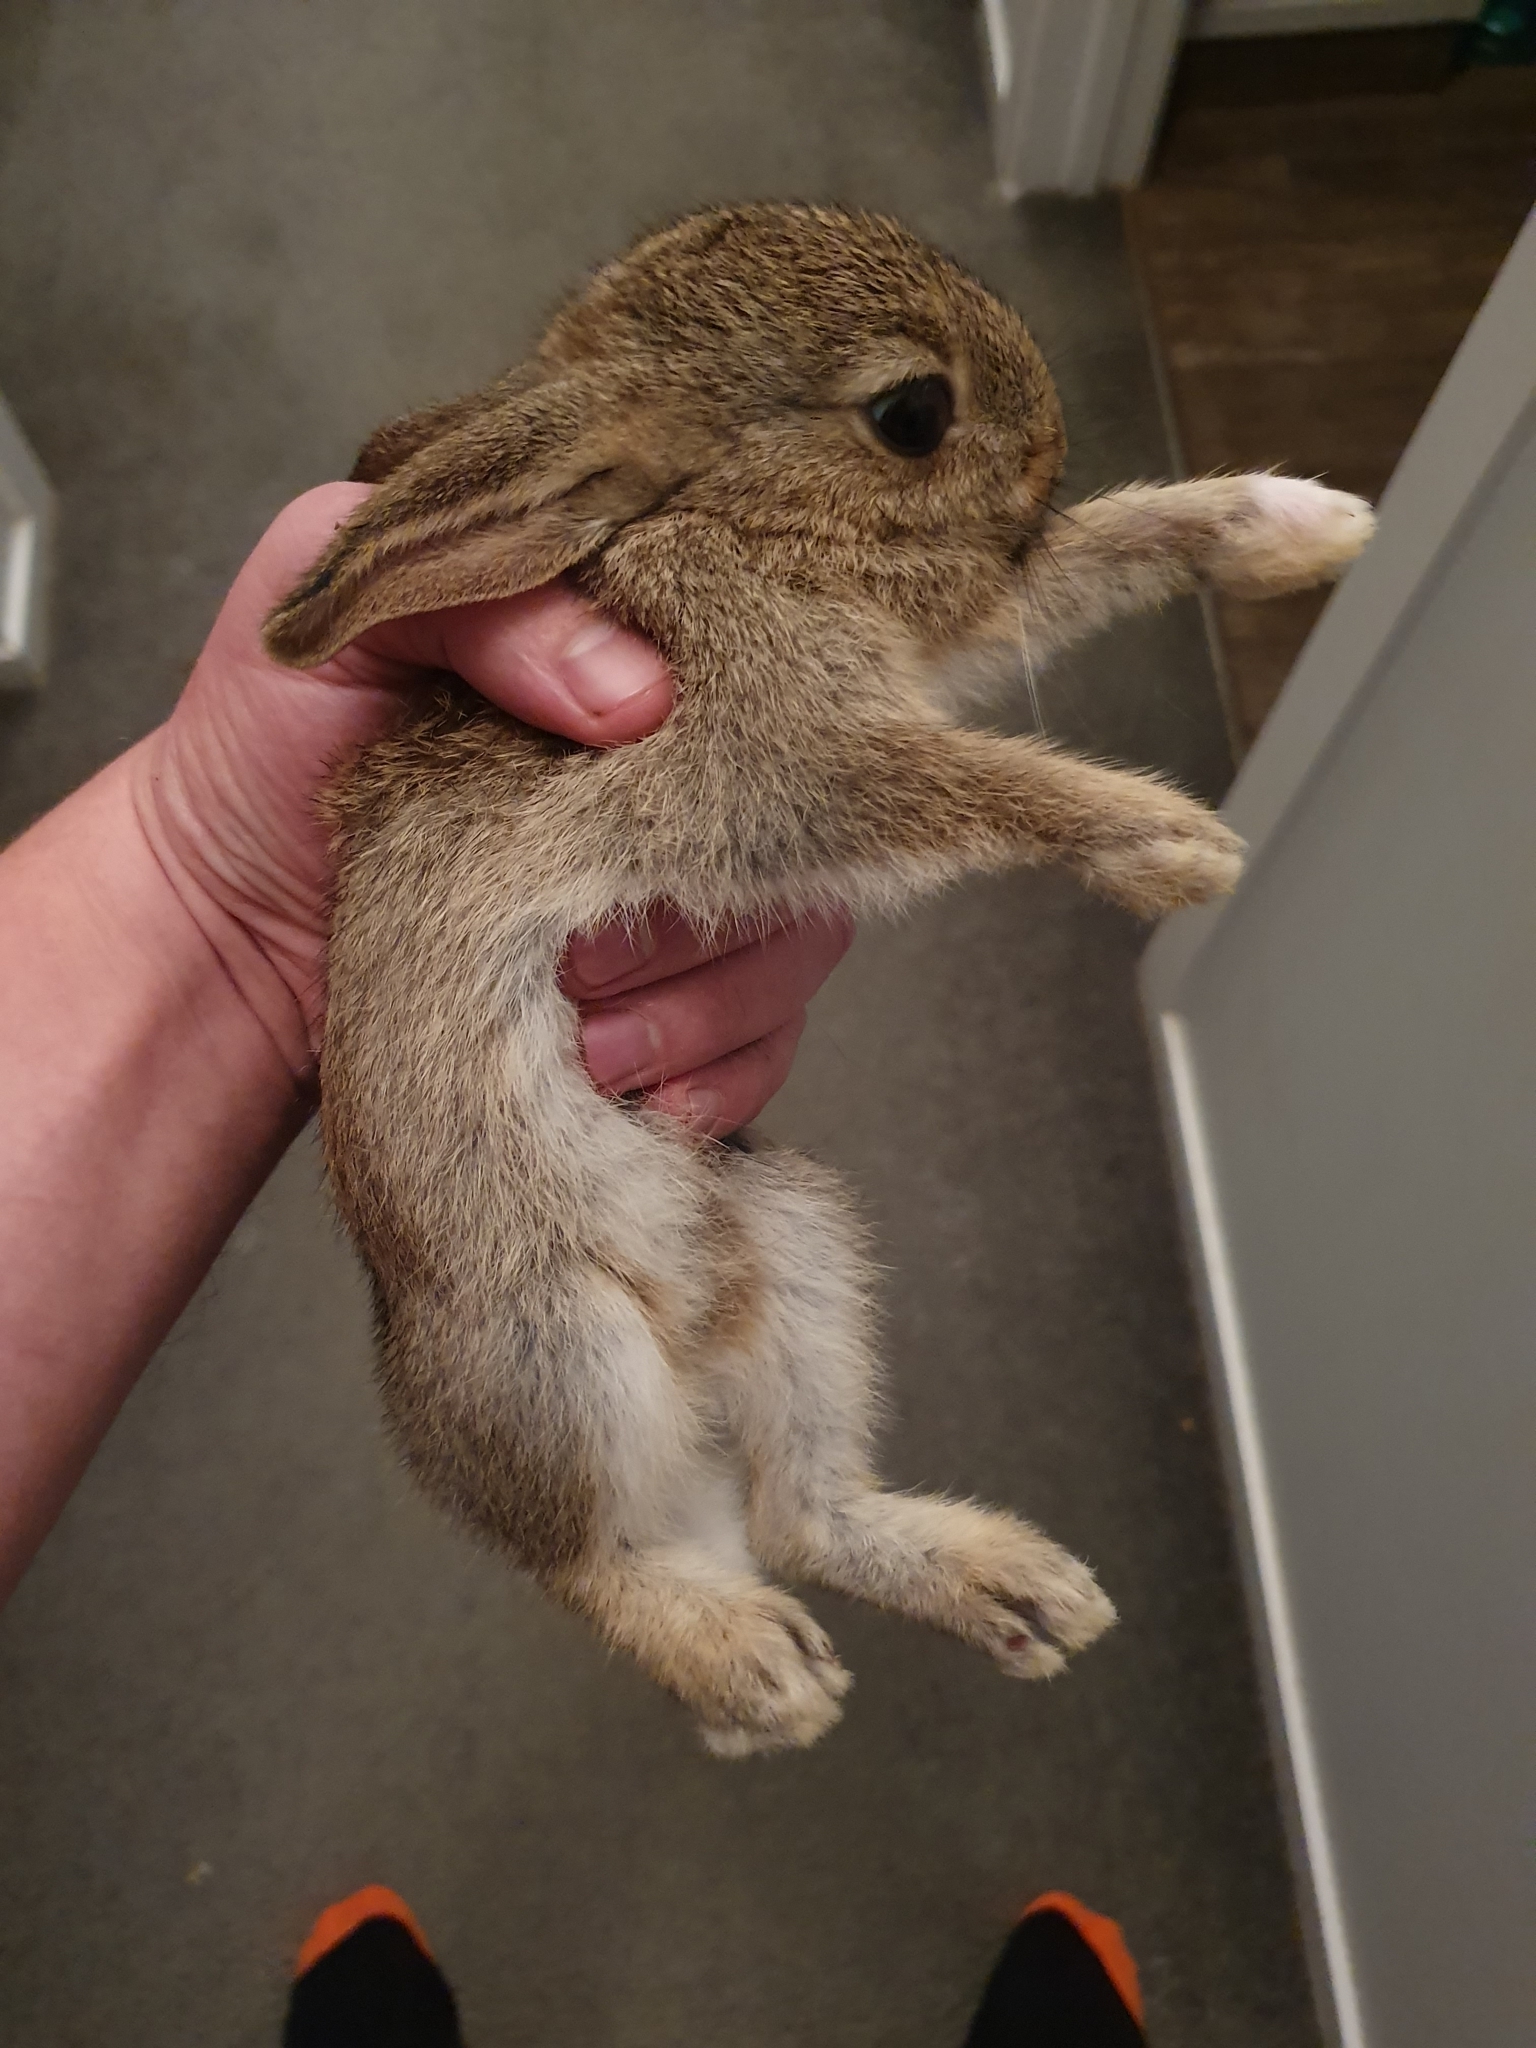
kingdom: Animalia
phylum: Chordata
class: Mammalia
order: Lagomorpha
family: Leporidae
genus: Oryctolagus
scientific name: Oryctolagus cuniculus
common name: European rabbit
